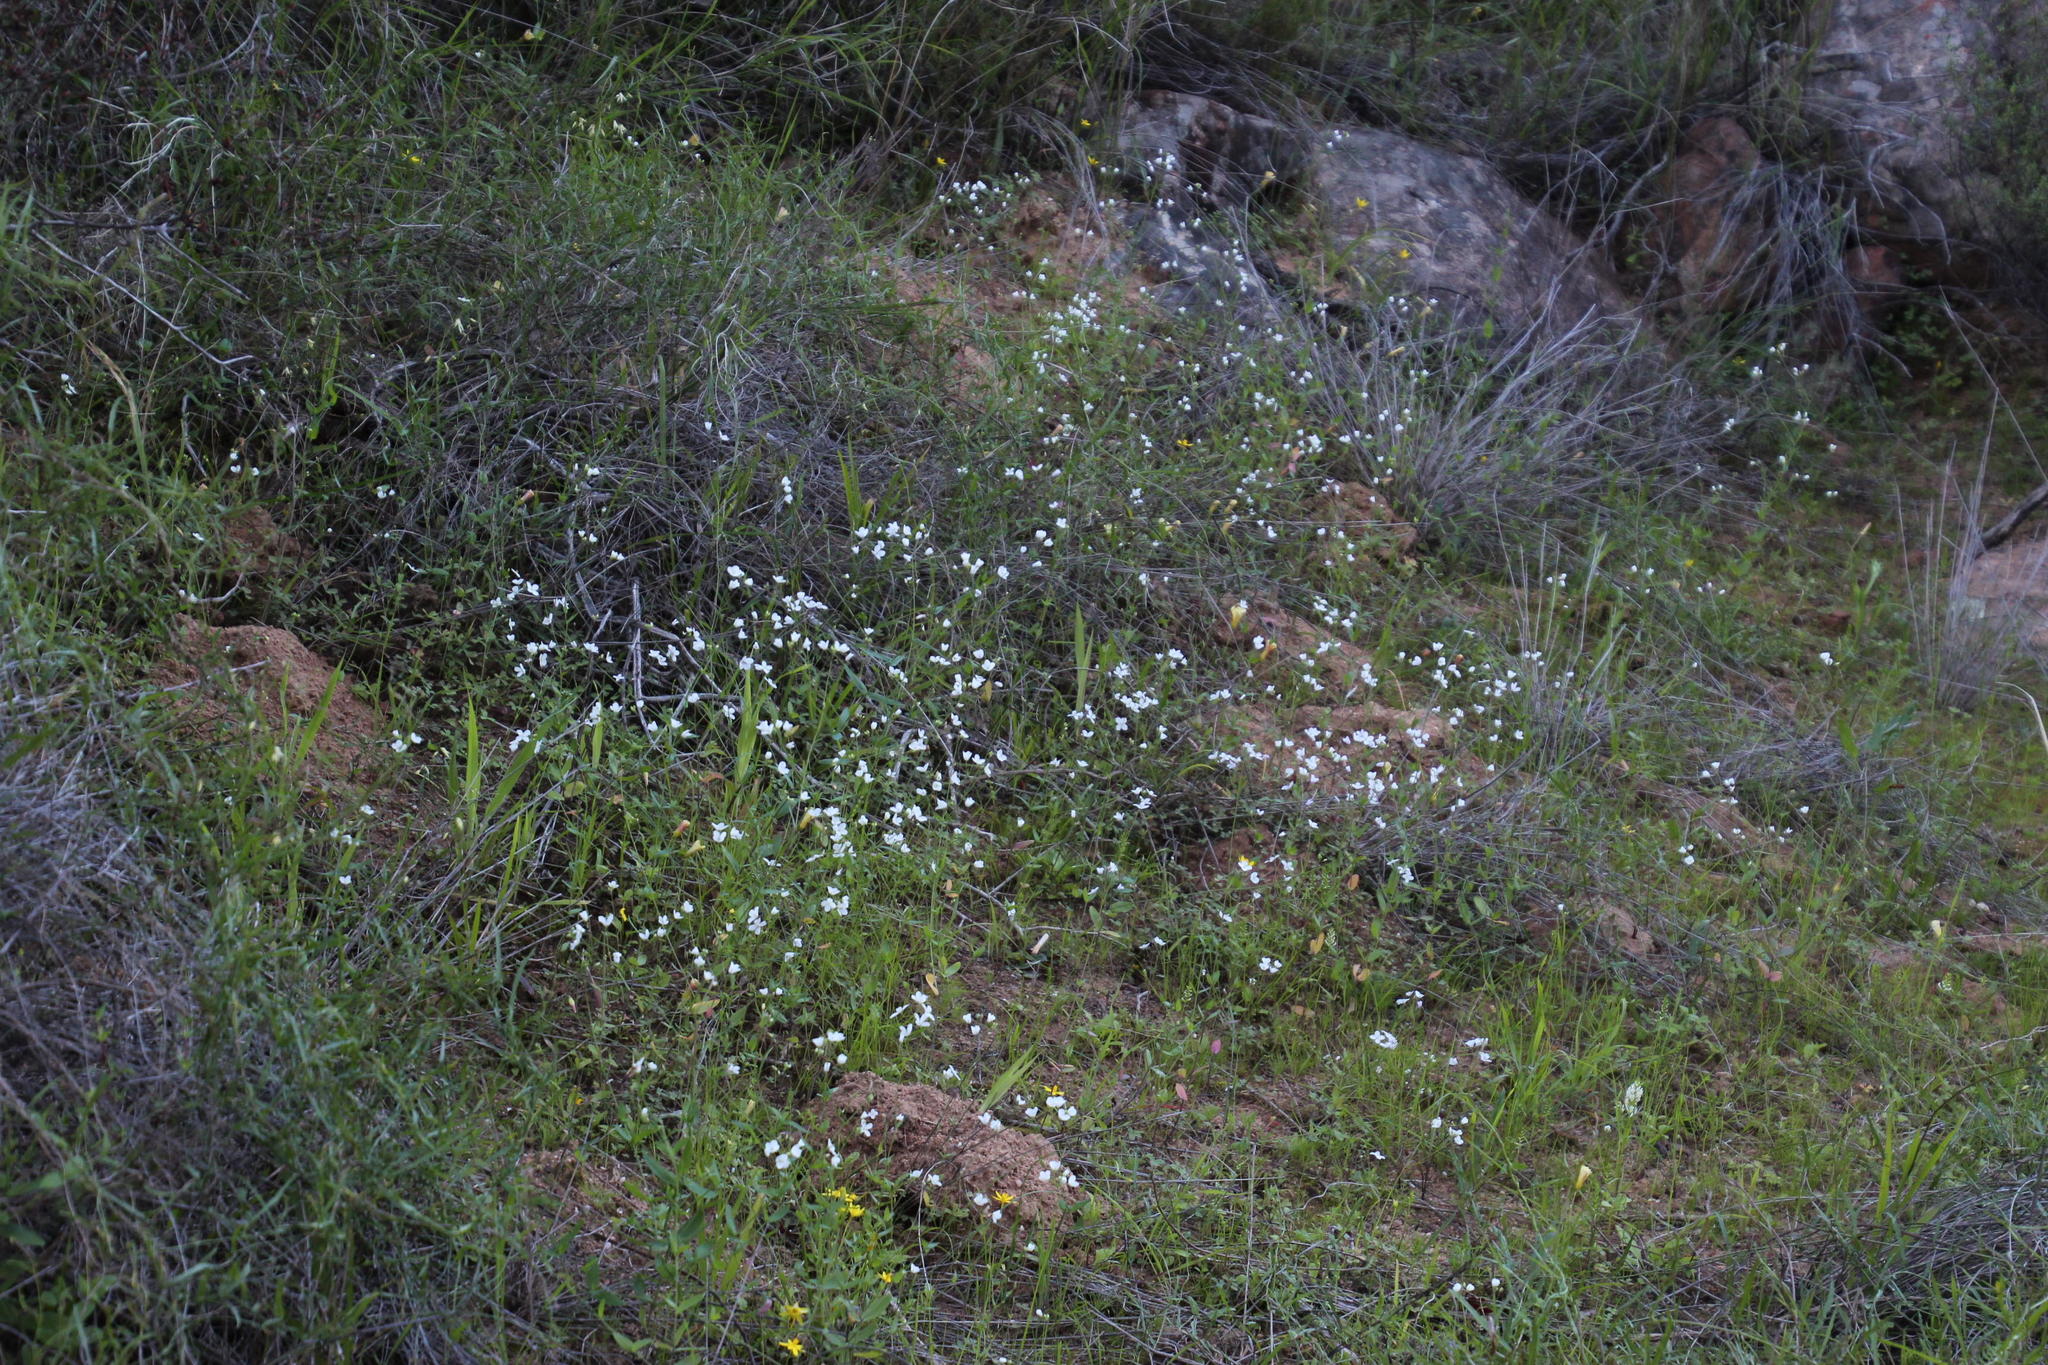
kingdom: Plantae
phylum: Tracheophyta
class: Magnoliopsida
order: Brassicales
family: Brassicaceae
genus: Heliophila
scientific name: Heliophila amplexicaulis
